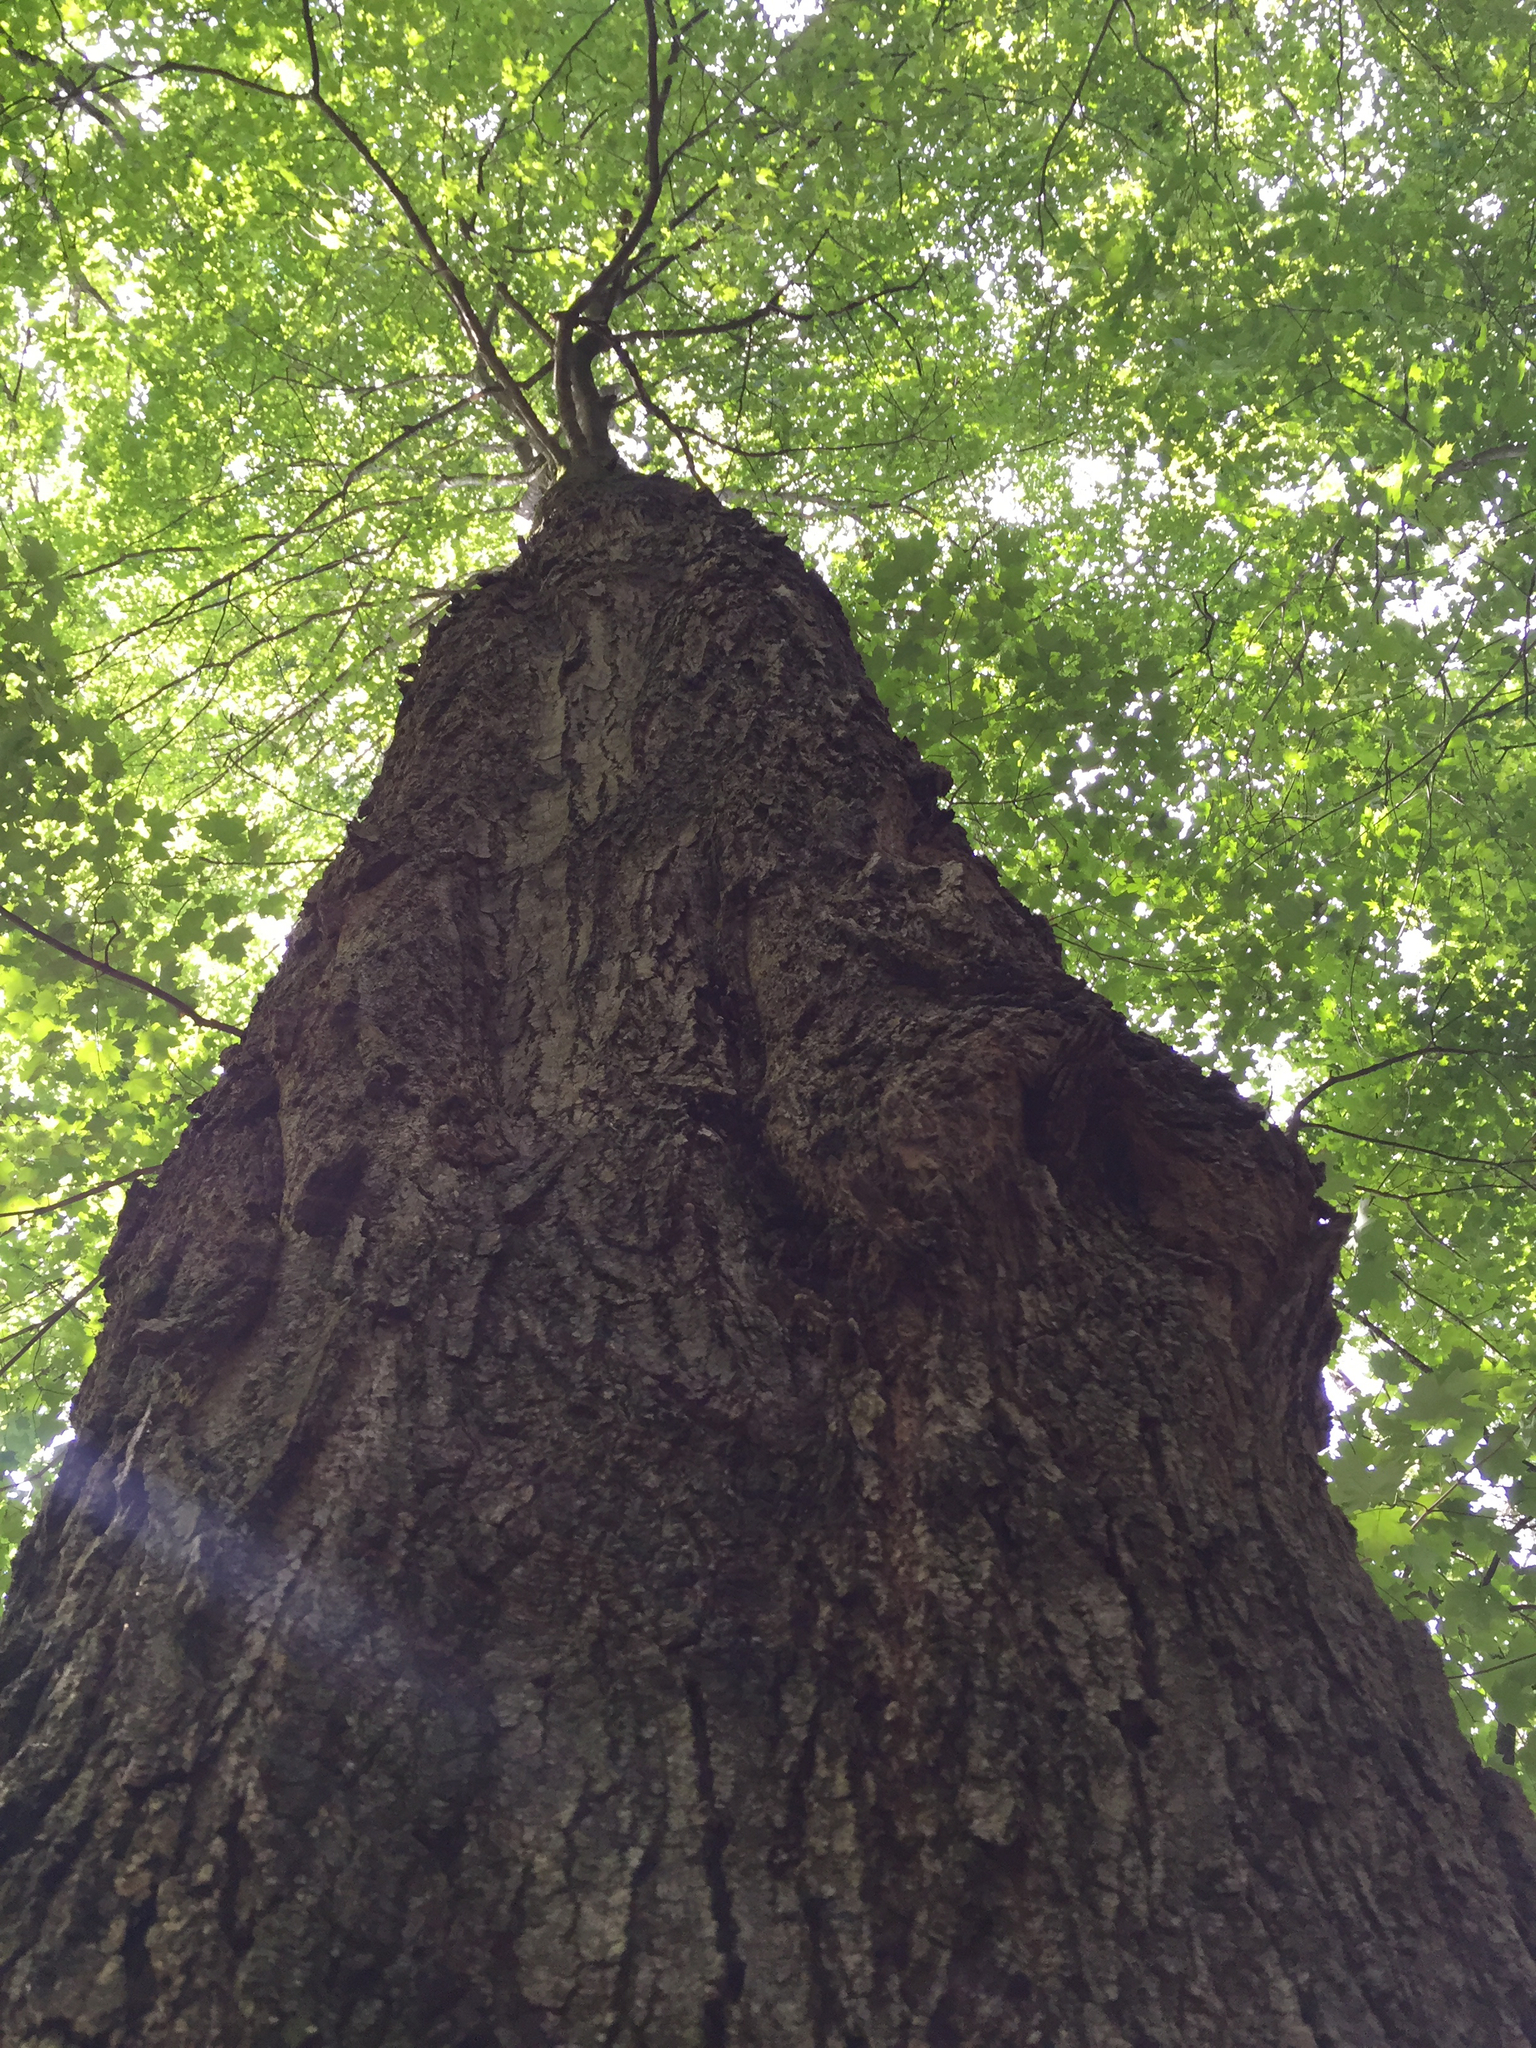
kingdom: Plantae
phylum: Tracheophyta
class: Magnoliopsida
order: Sapindales
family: Sapindaceae
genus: Acer
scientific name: Acer saccharum
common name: Sugar maple
